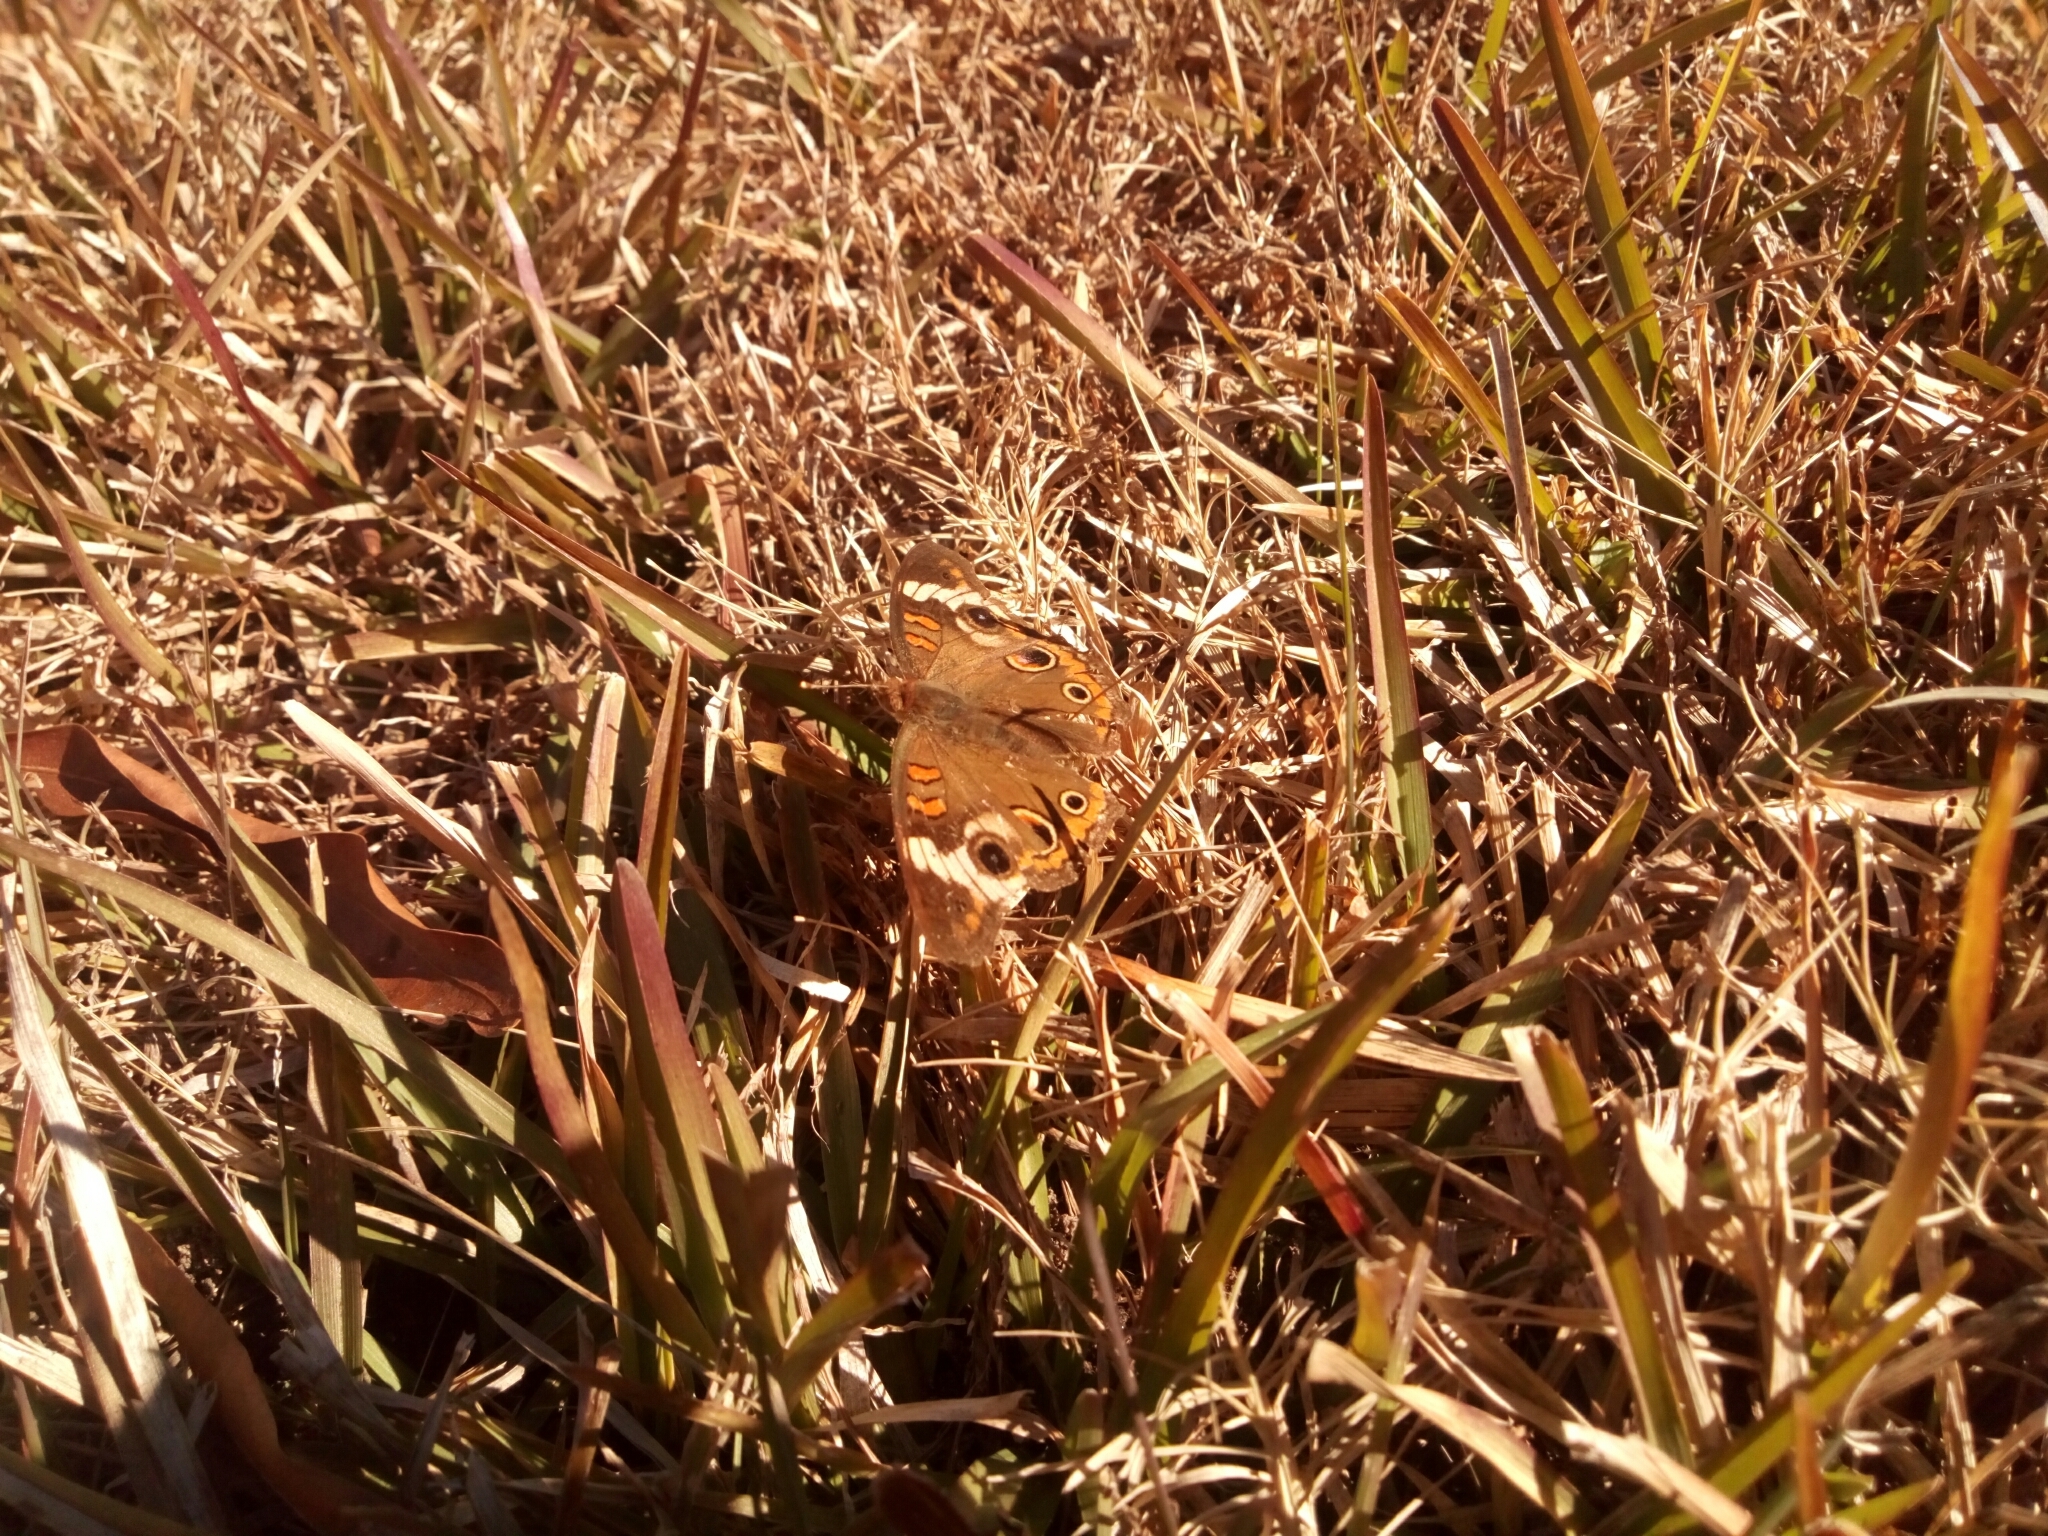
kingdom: Animalia
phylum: Arthropoda
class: Insecta
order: Lepidoptera
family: Nymphalidae
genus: Junonia
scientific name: Junonia coenia
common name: Common buckeye
